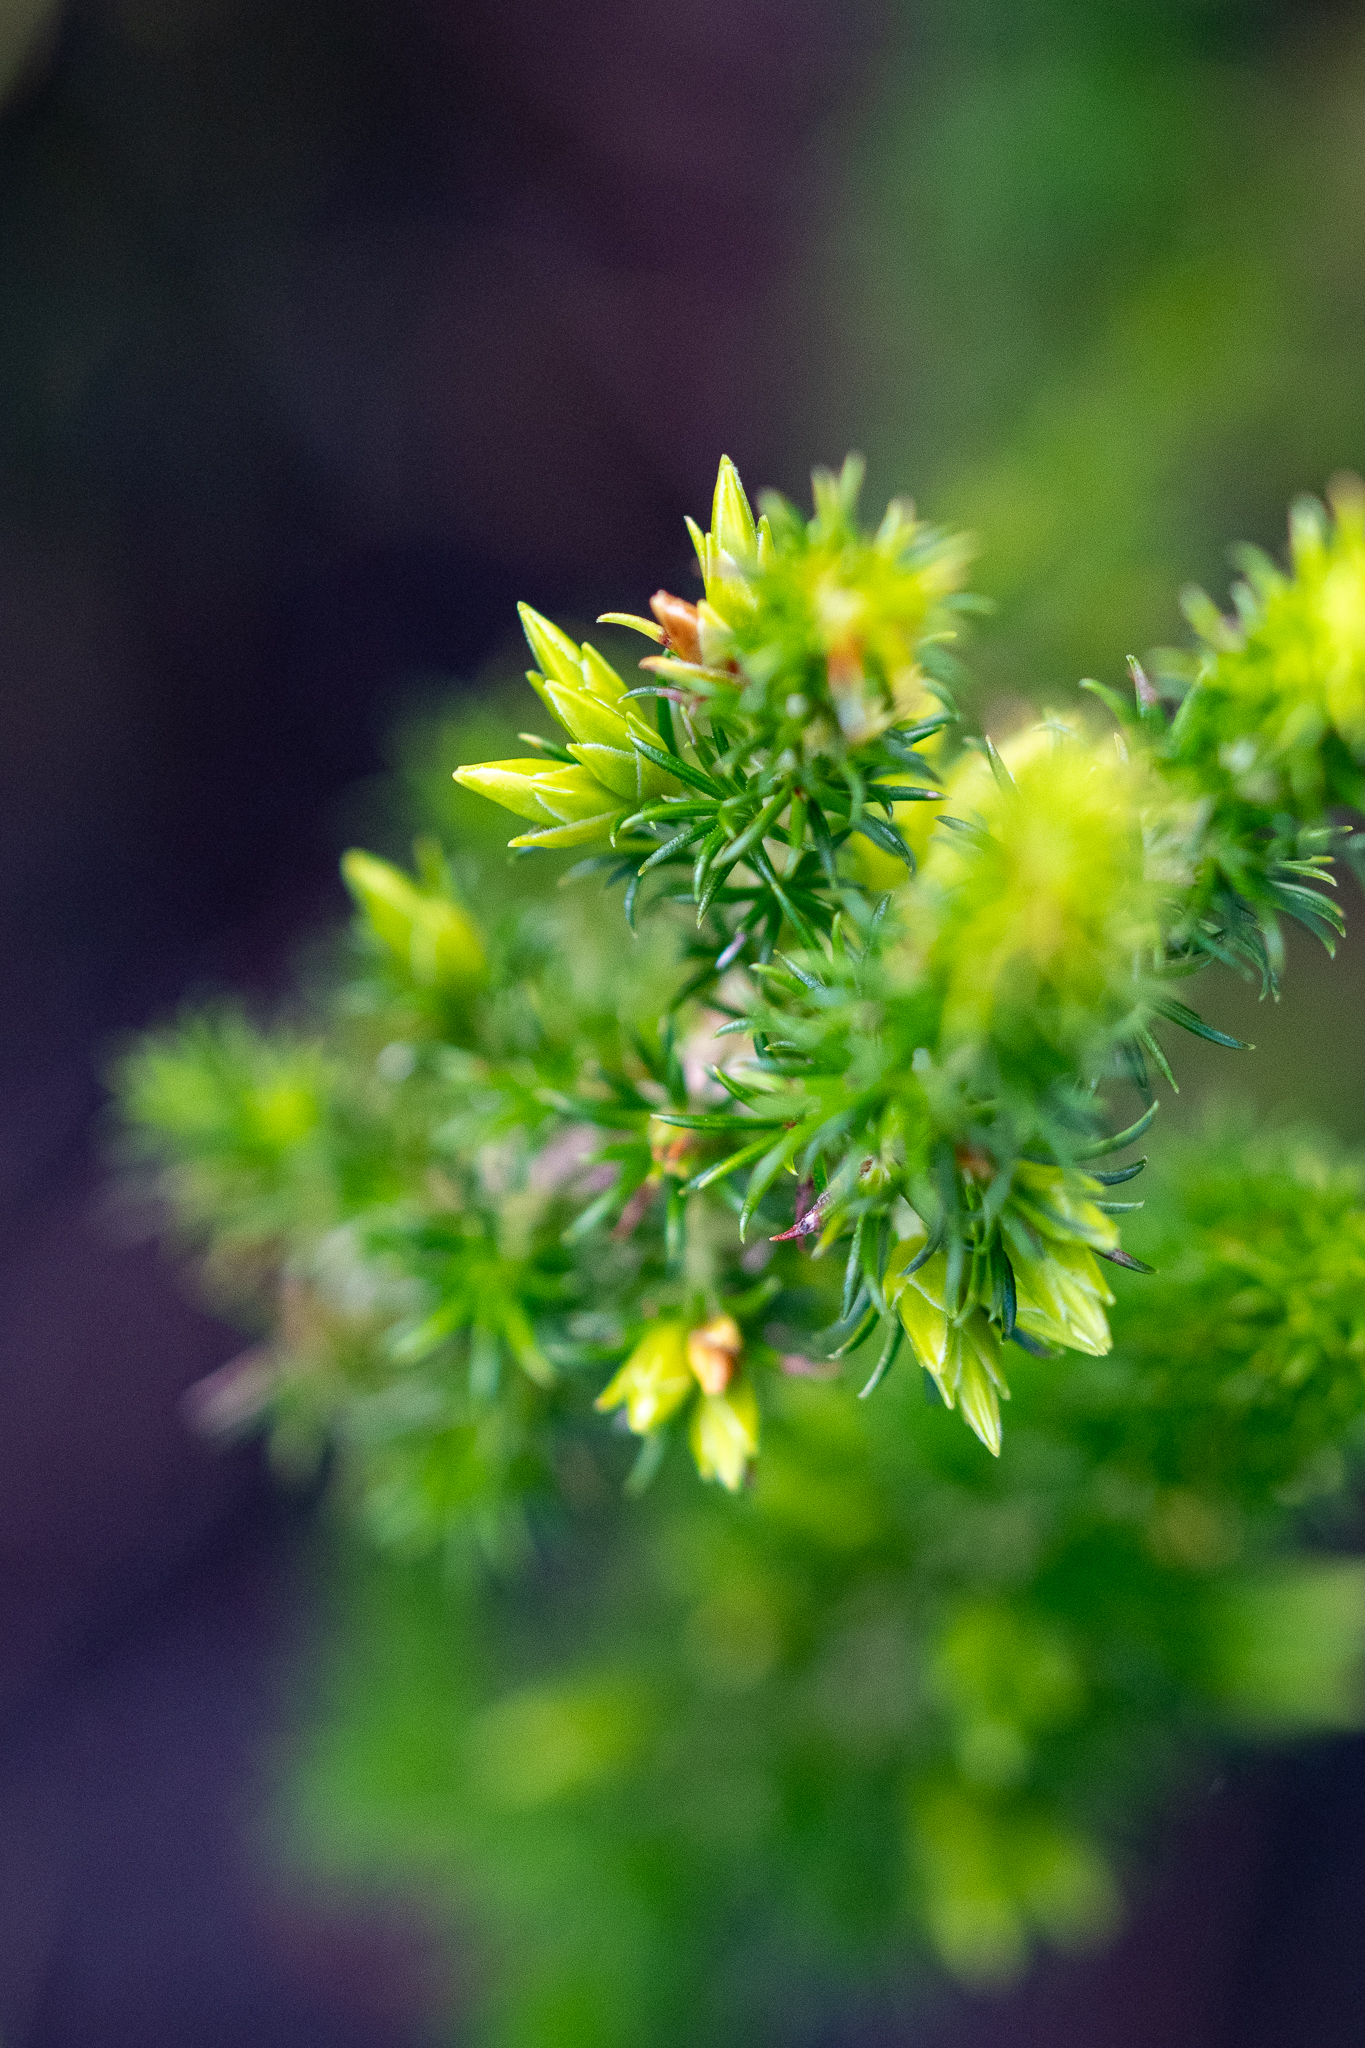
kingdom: Plantae
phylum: Tracheophyta
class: Magnoliopsida
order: Ericales
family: Ericaceae
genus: Erica
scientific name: Erica coccinea
